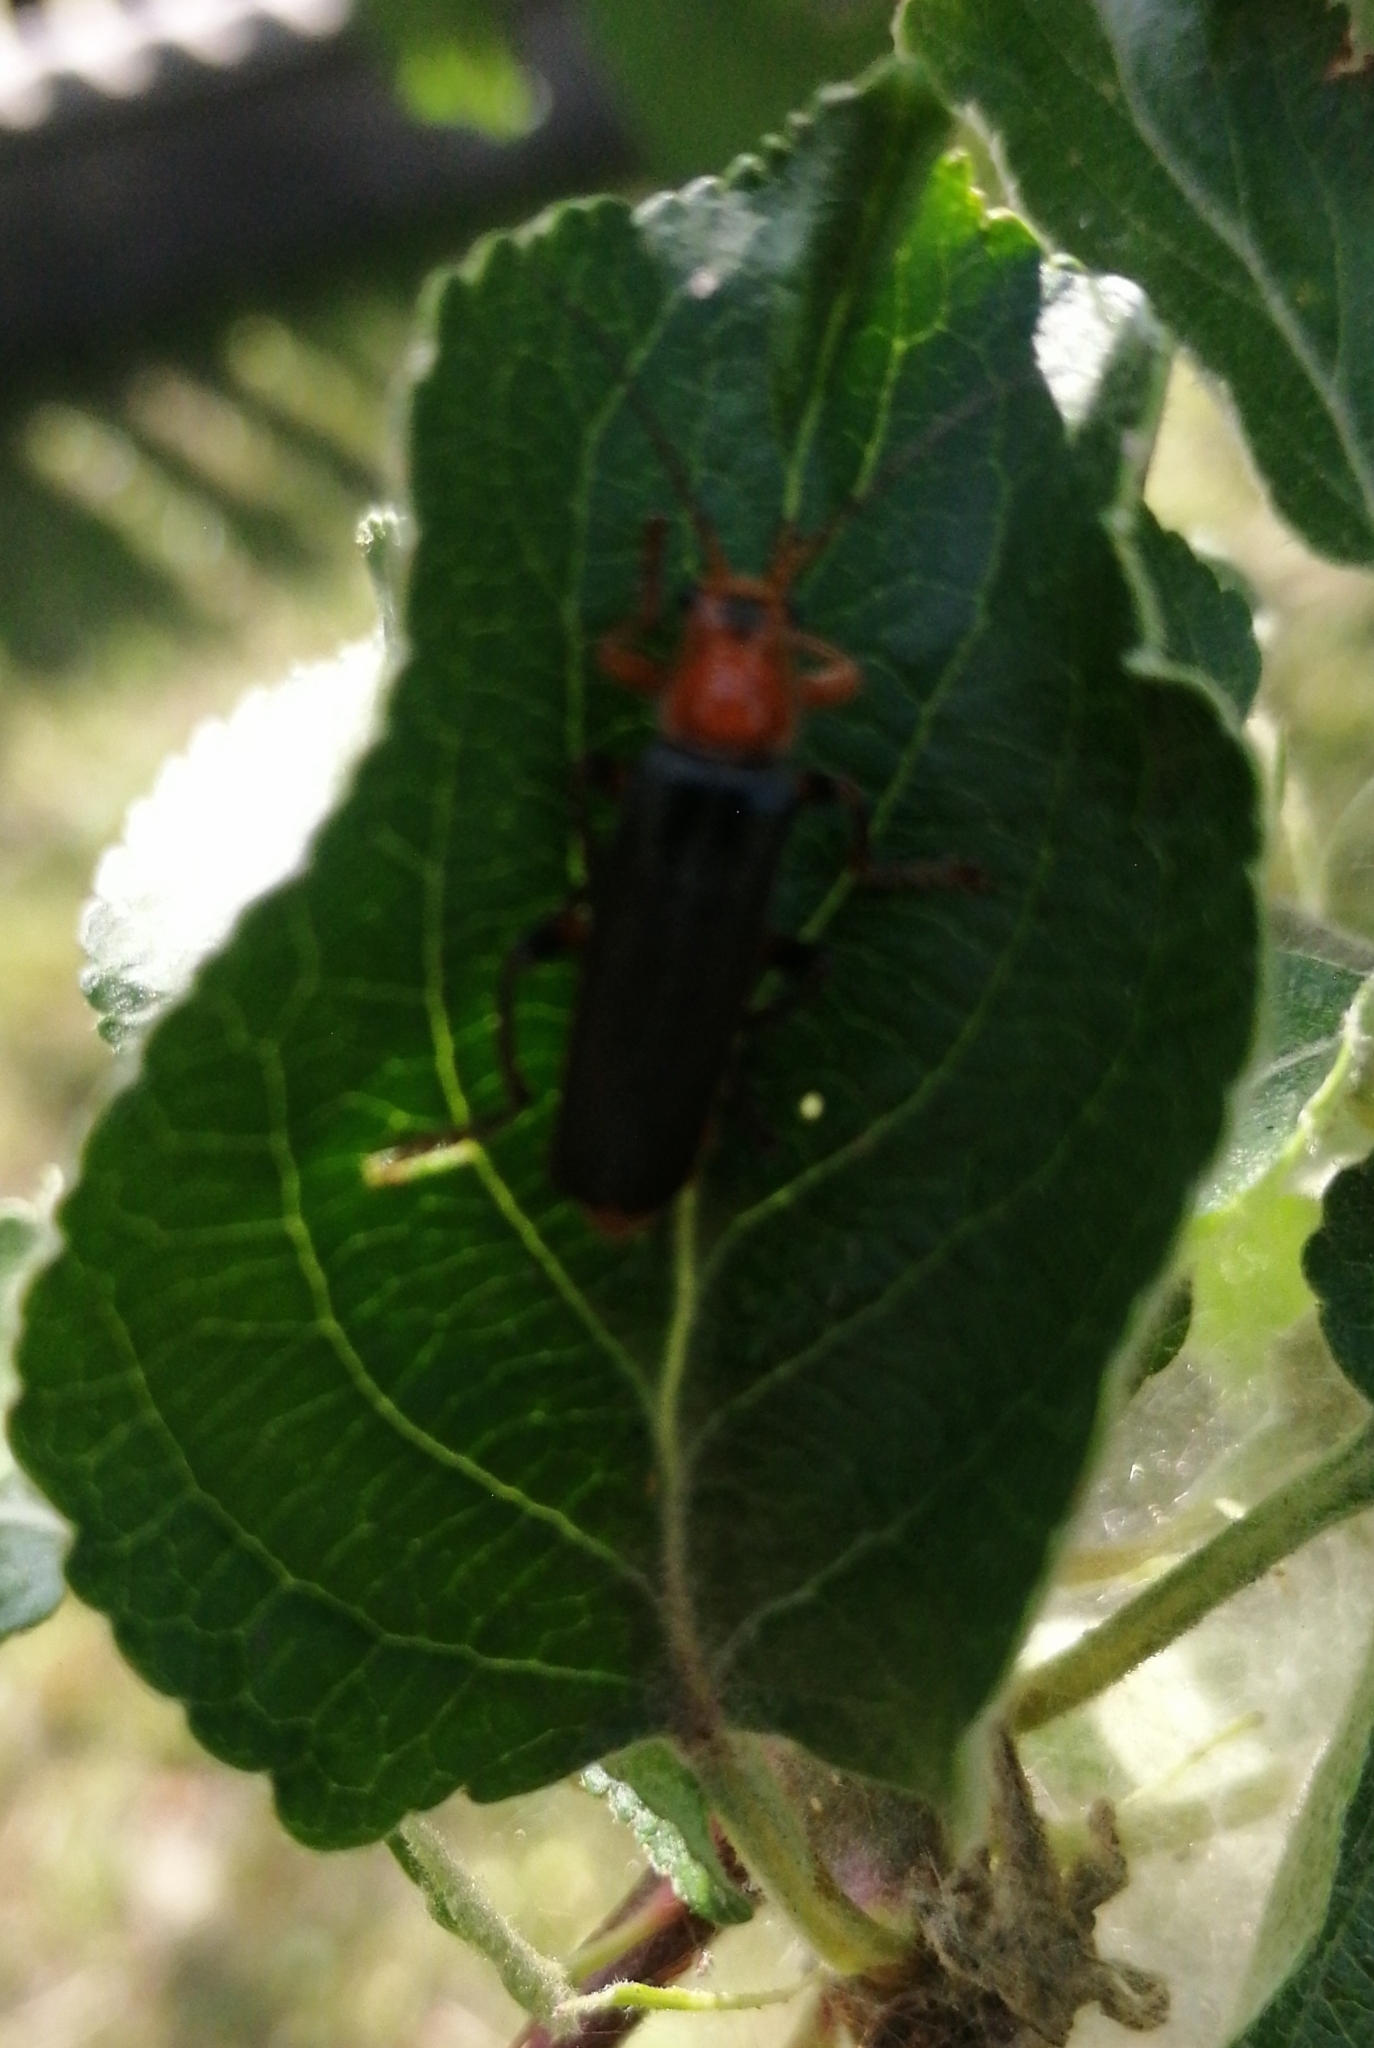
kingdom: Animalia
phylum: Arthropoda
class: Insecta
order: Coleoptera
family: Cantharidae
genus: Cantharis
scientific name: Cantharis livida
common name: Livid soldier beetle
